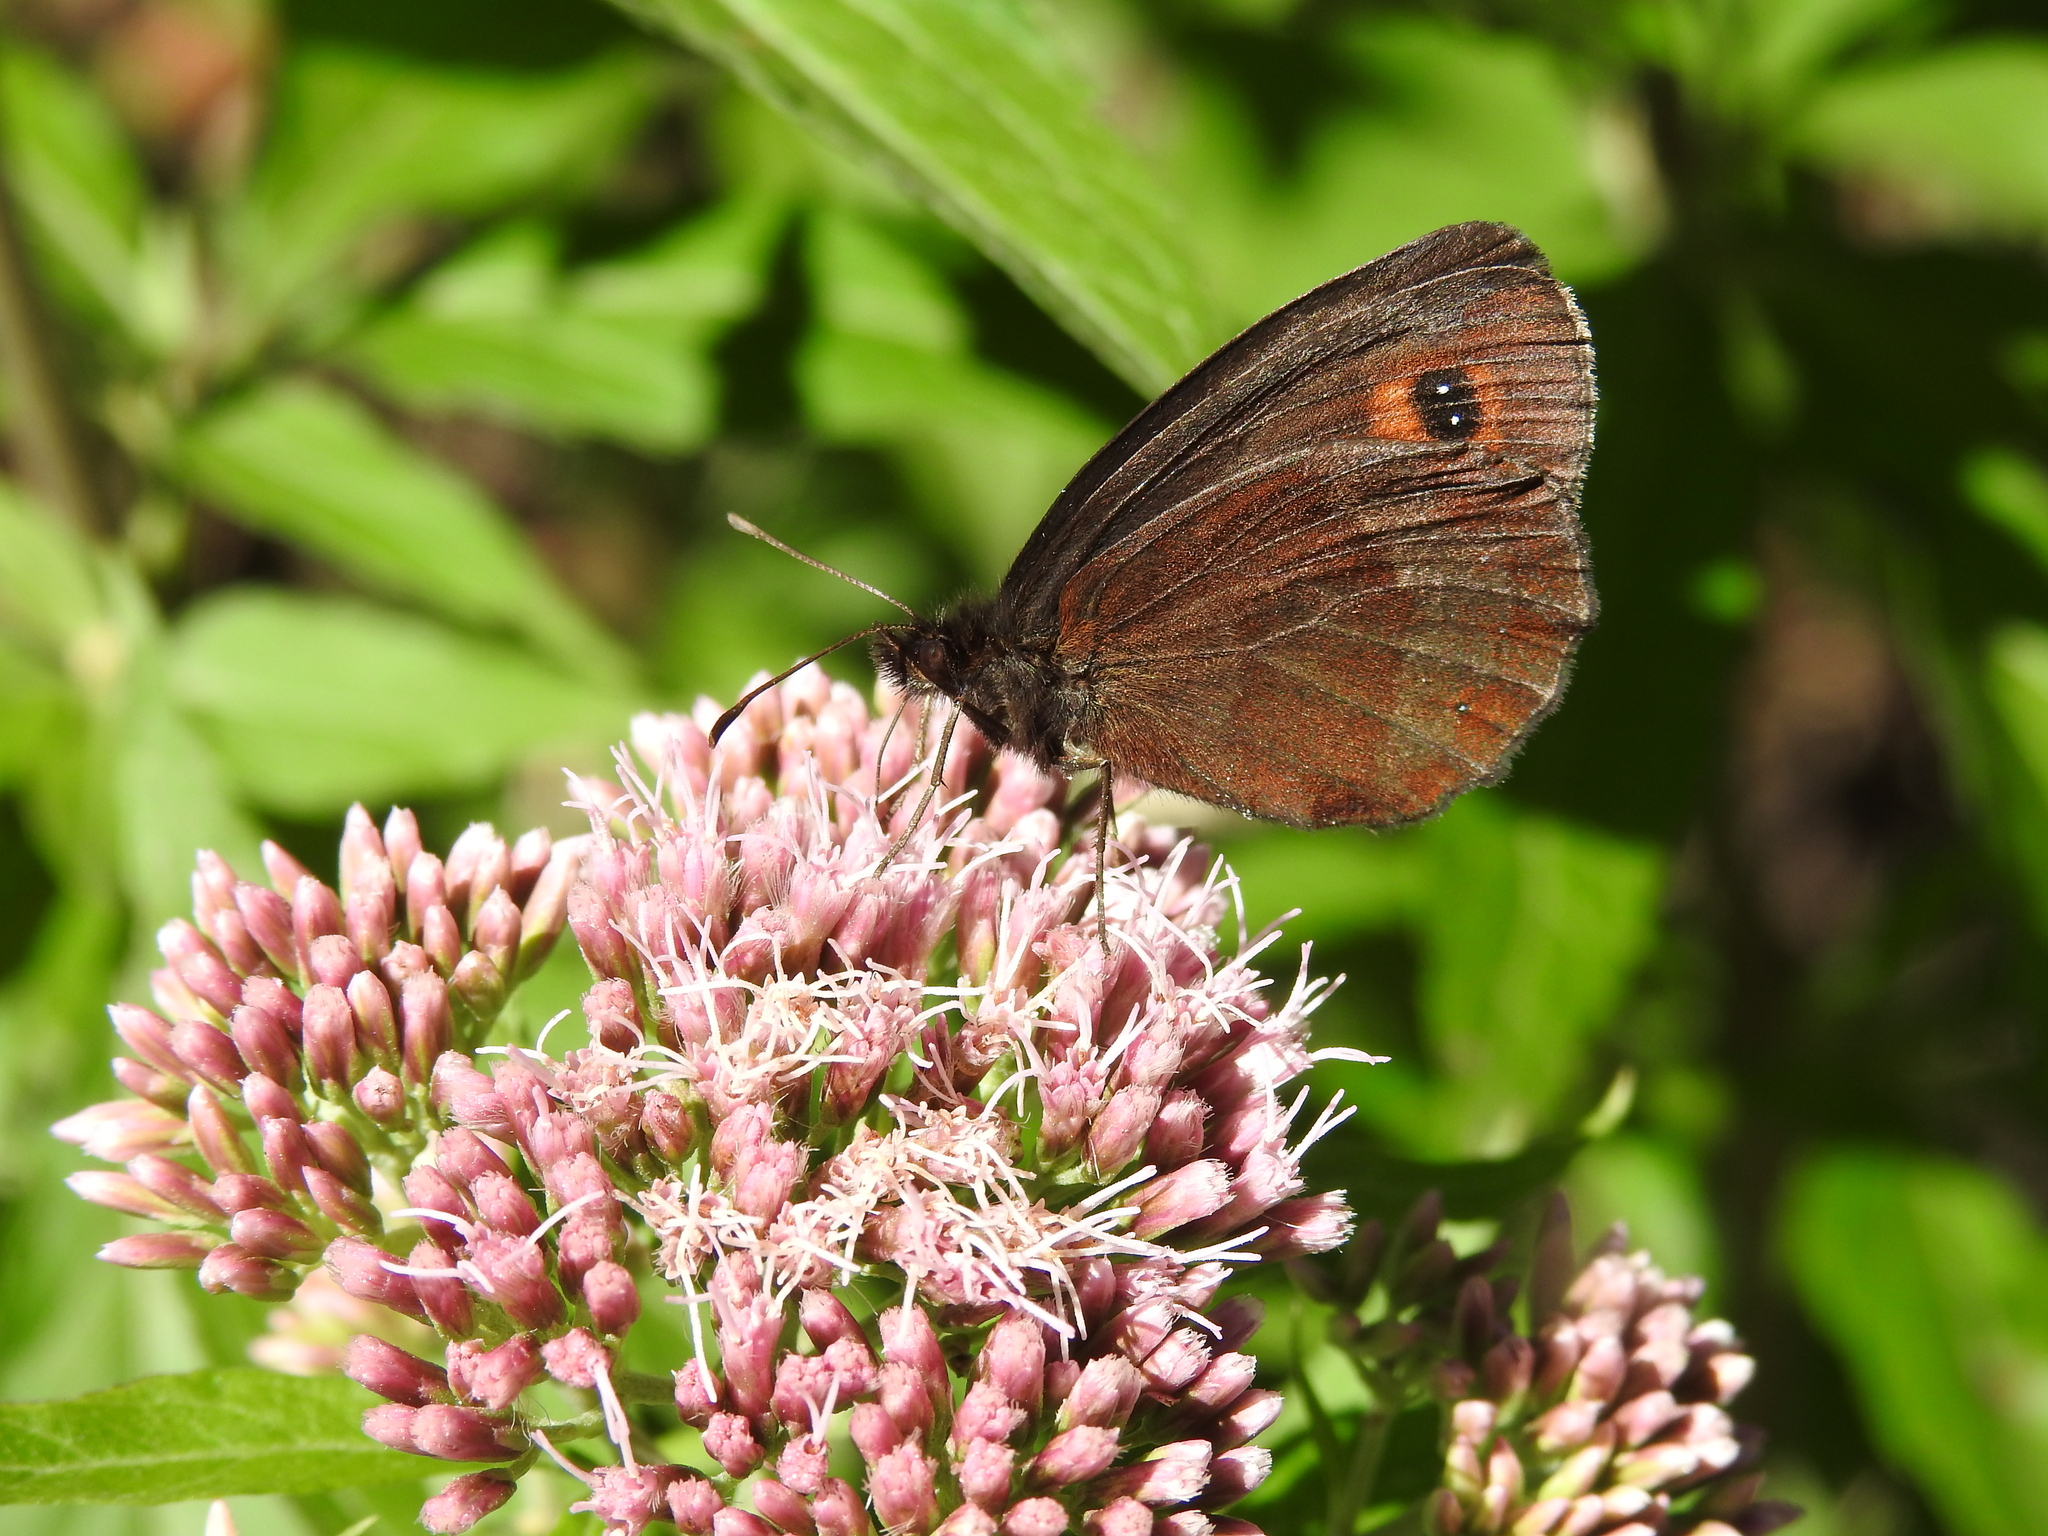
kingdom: Animalia
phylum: Arthropoda
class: Insecta
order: Lepidoptera
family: Nymphalidae
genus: Erebia
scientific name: Erebia aethiops
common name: Scotch argus
